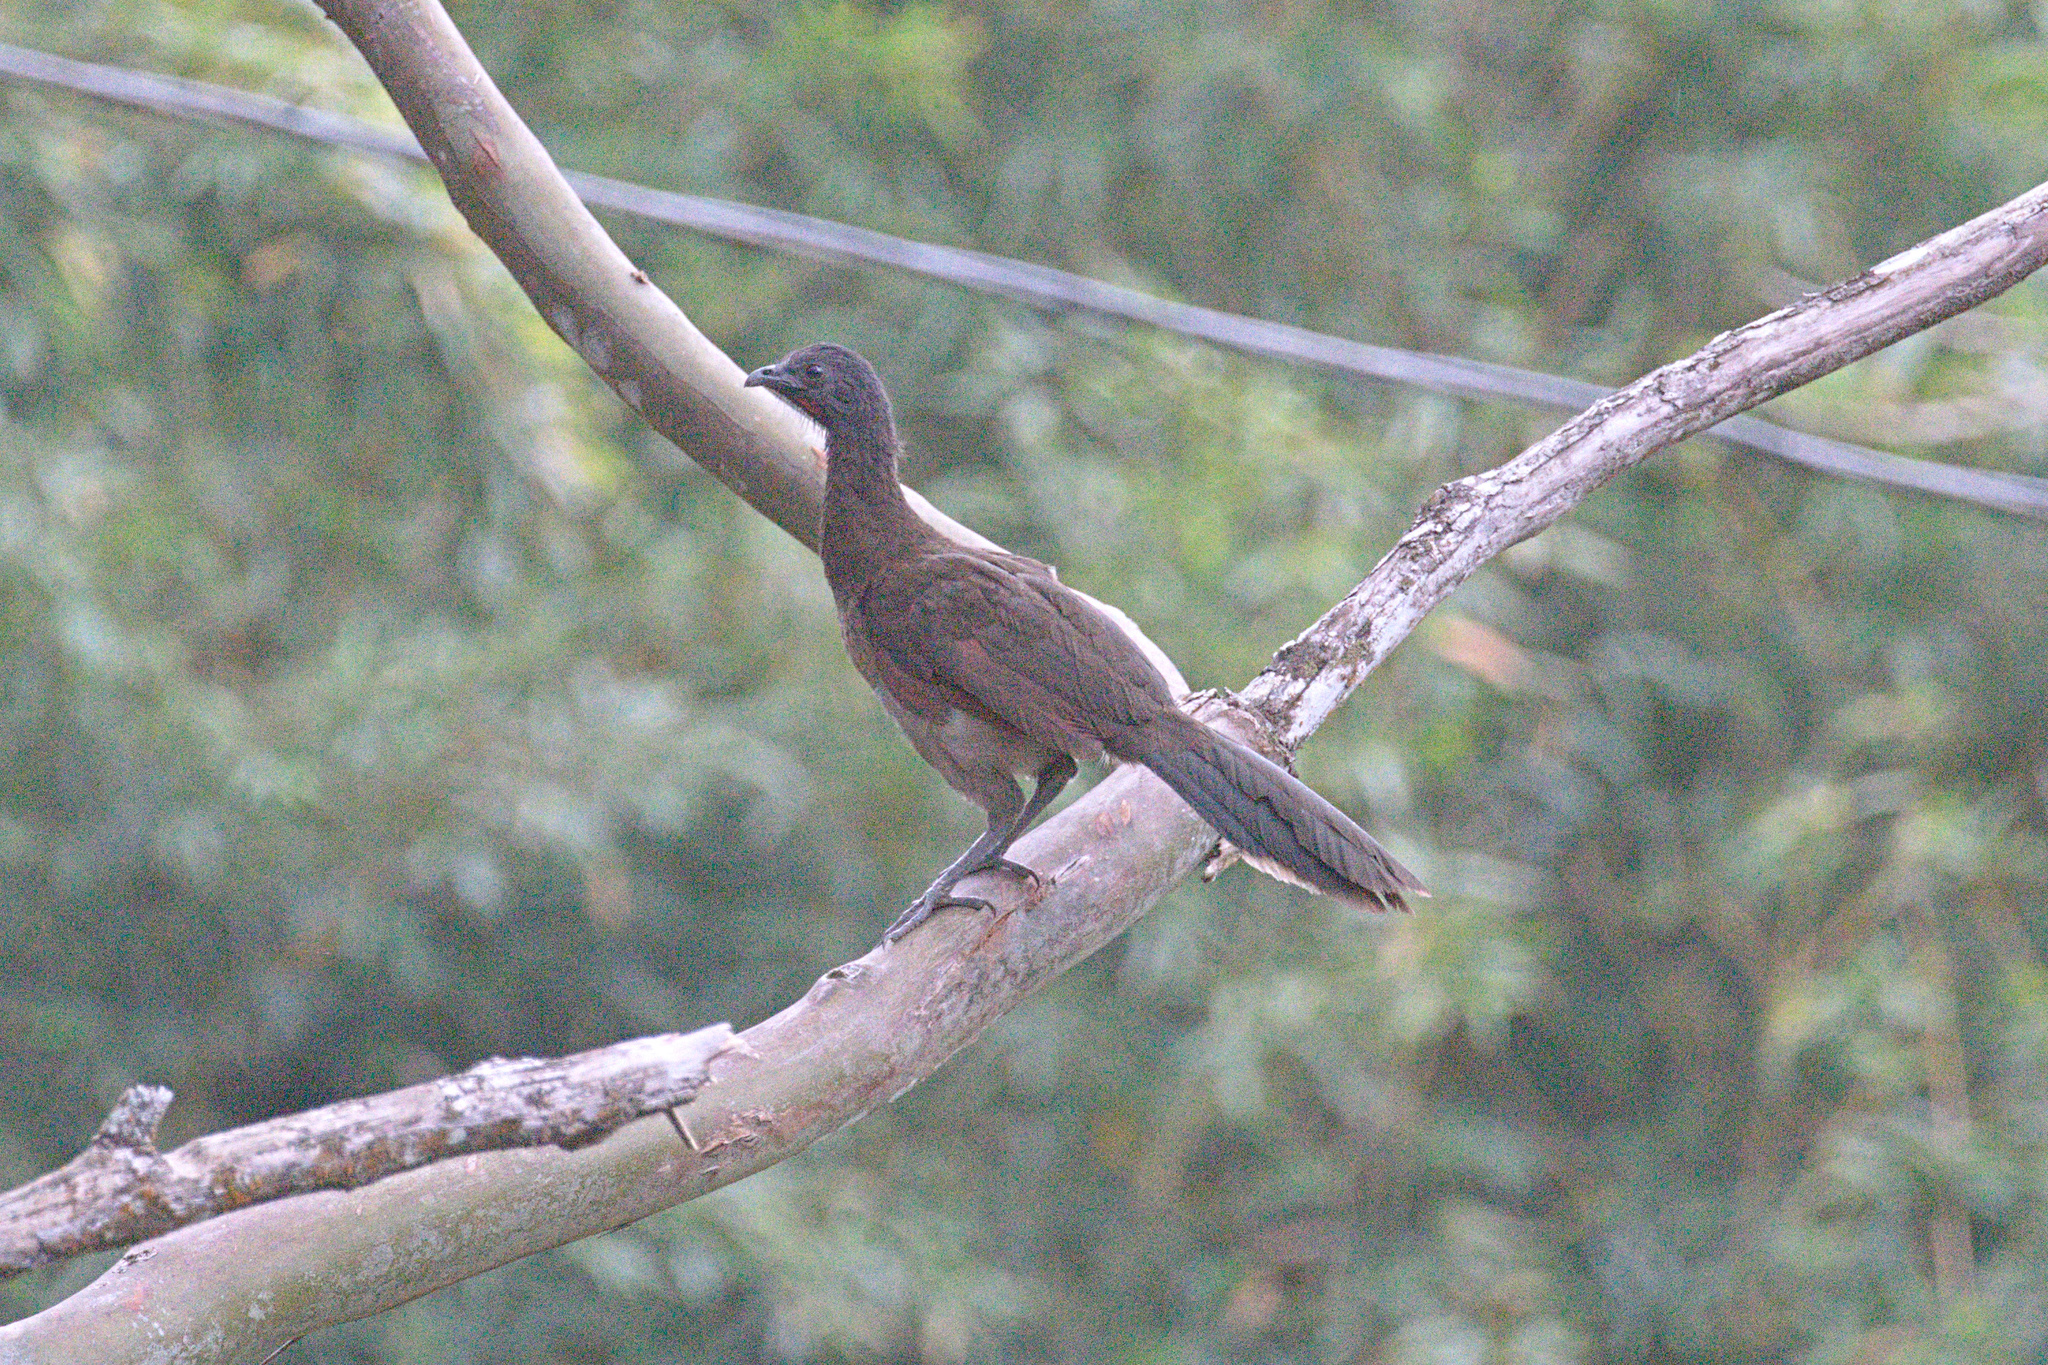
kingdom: Animalia
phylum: Chordata
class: Aves
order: Galliformes
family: Cracidae
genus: Ortalis
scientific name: Ortalis cinereiceps
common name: Grey-headed chachalaca
